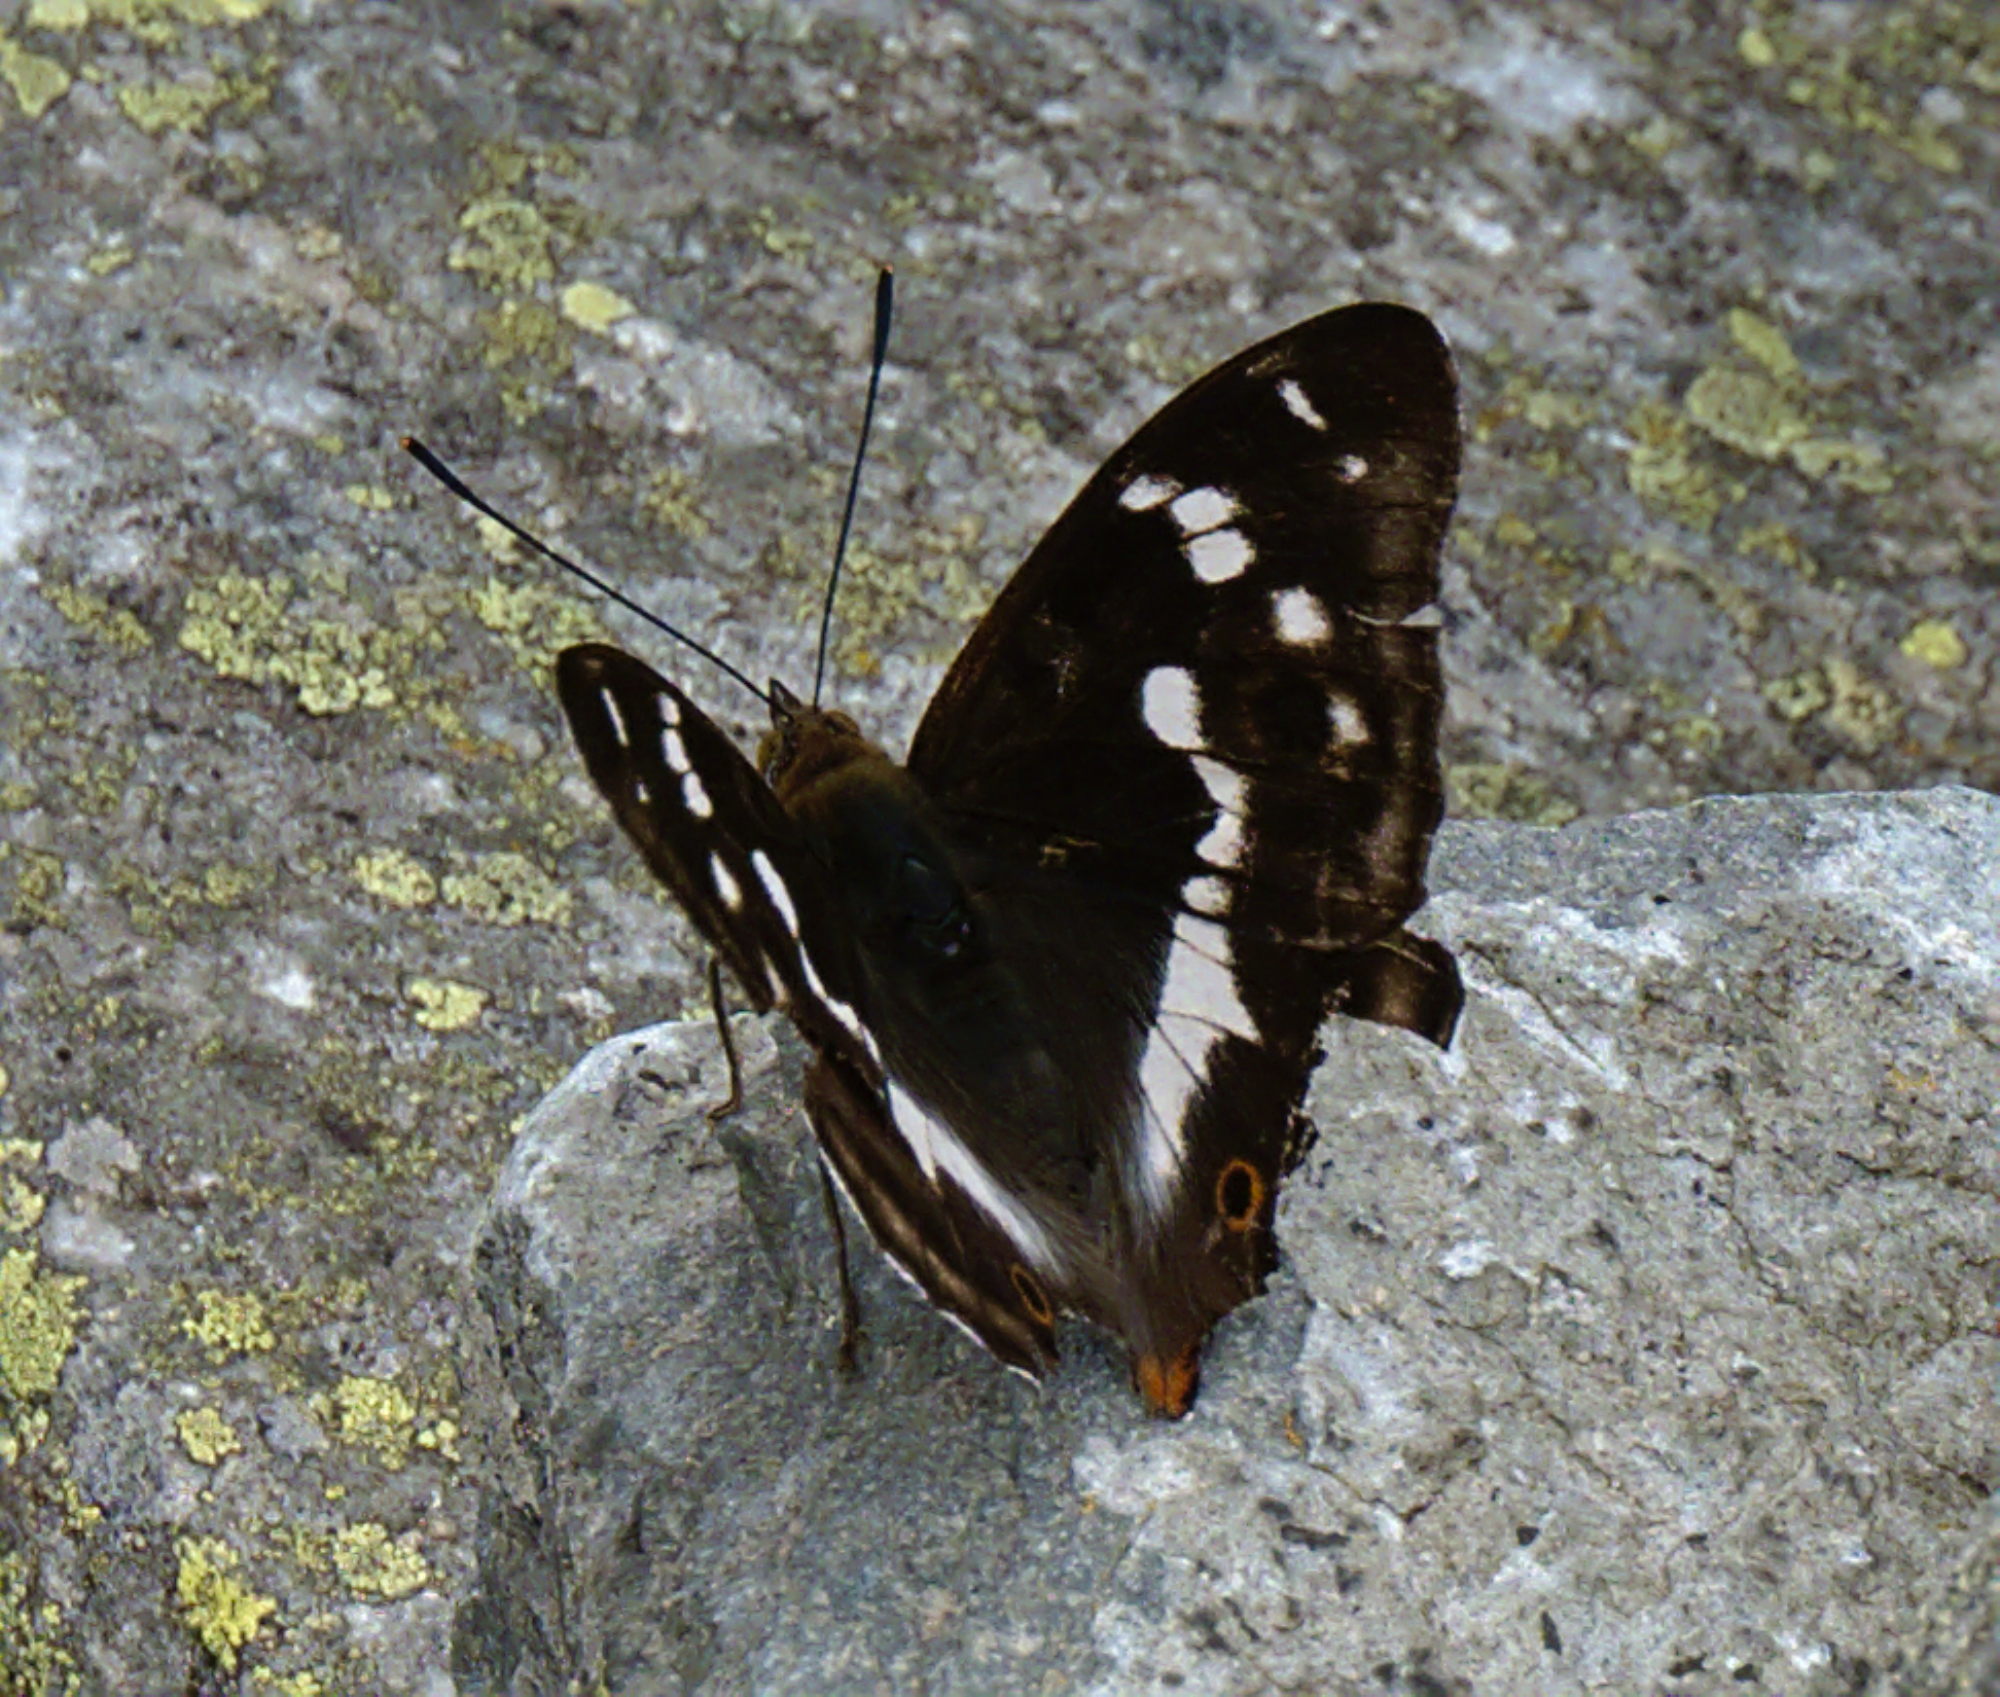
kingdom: Animalia
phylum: Arthropoda
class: Insecta
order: Lepidoptera
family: Nymphalidae
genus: Apatura
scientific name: Apatura iris
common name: Purple emperor
